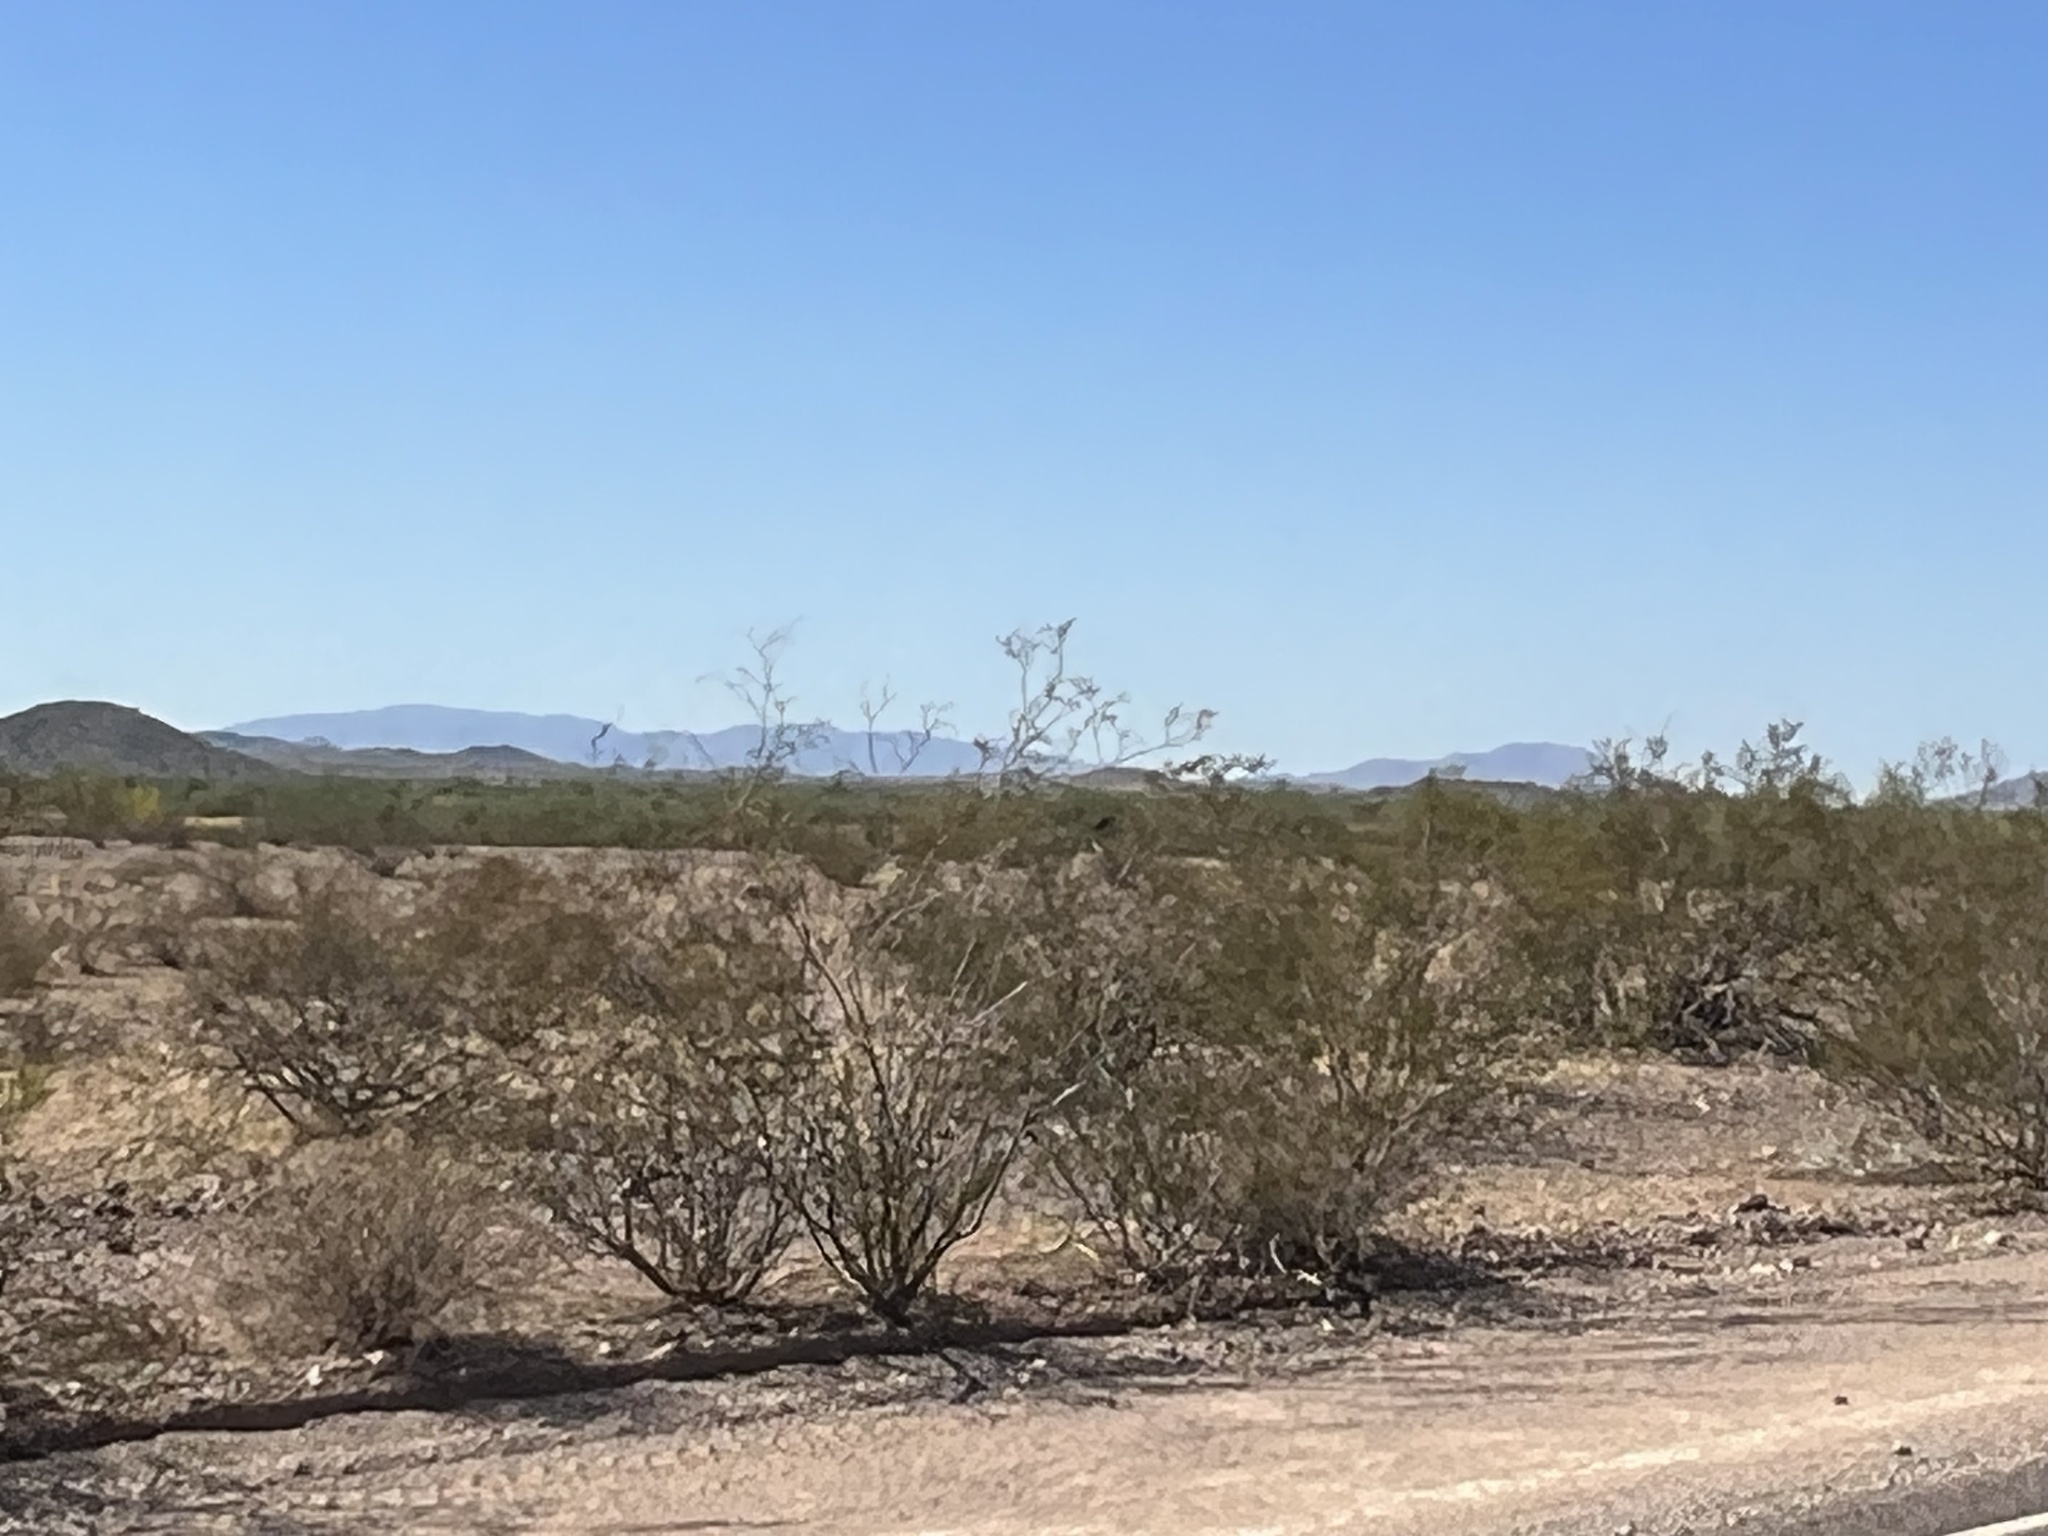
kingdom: Plantae
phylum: Tracheophyta
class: Magnoliopsida
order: Zygophyllales
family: Zygophyllaceae
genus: Larrea
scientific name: Larrea tridentata
